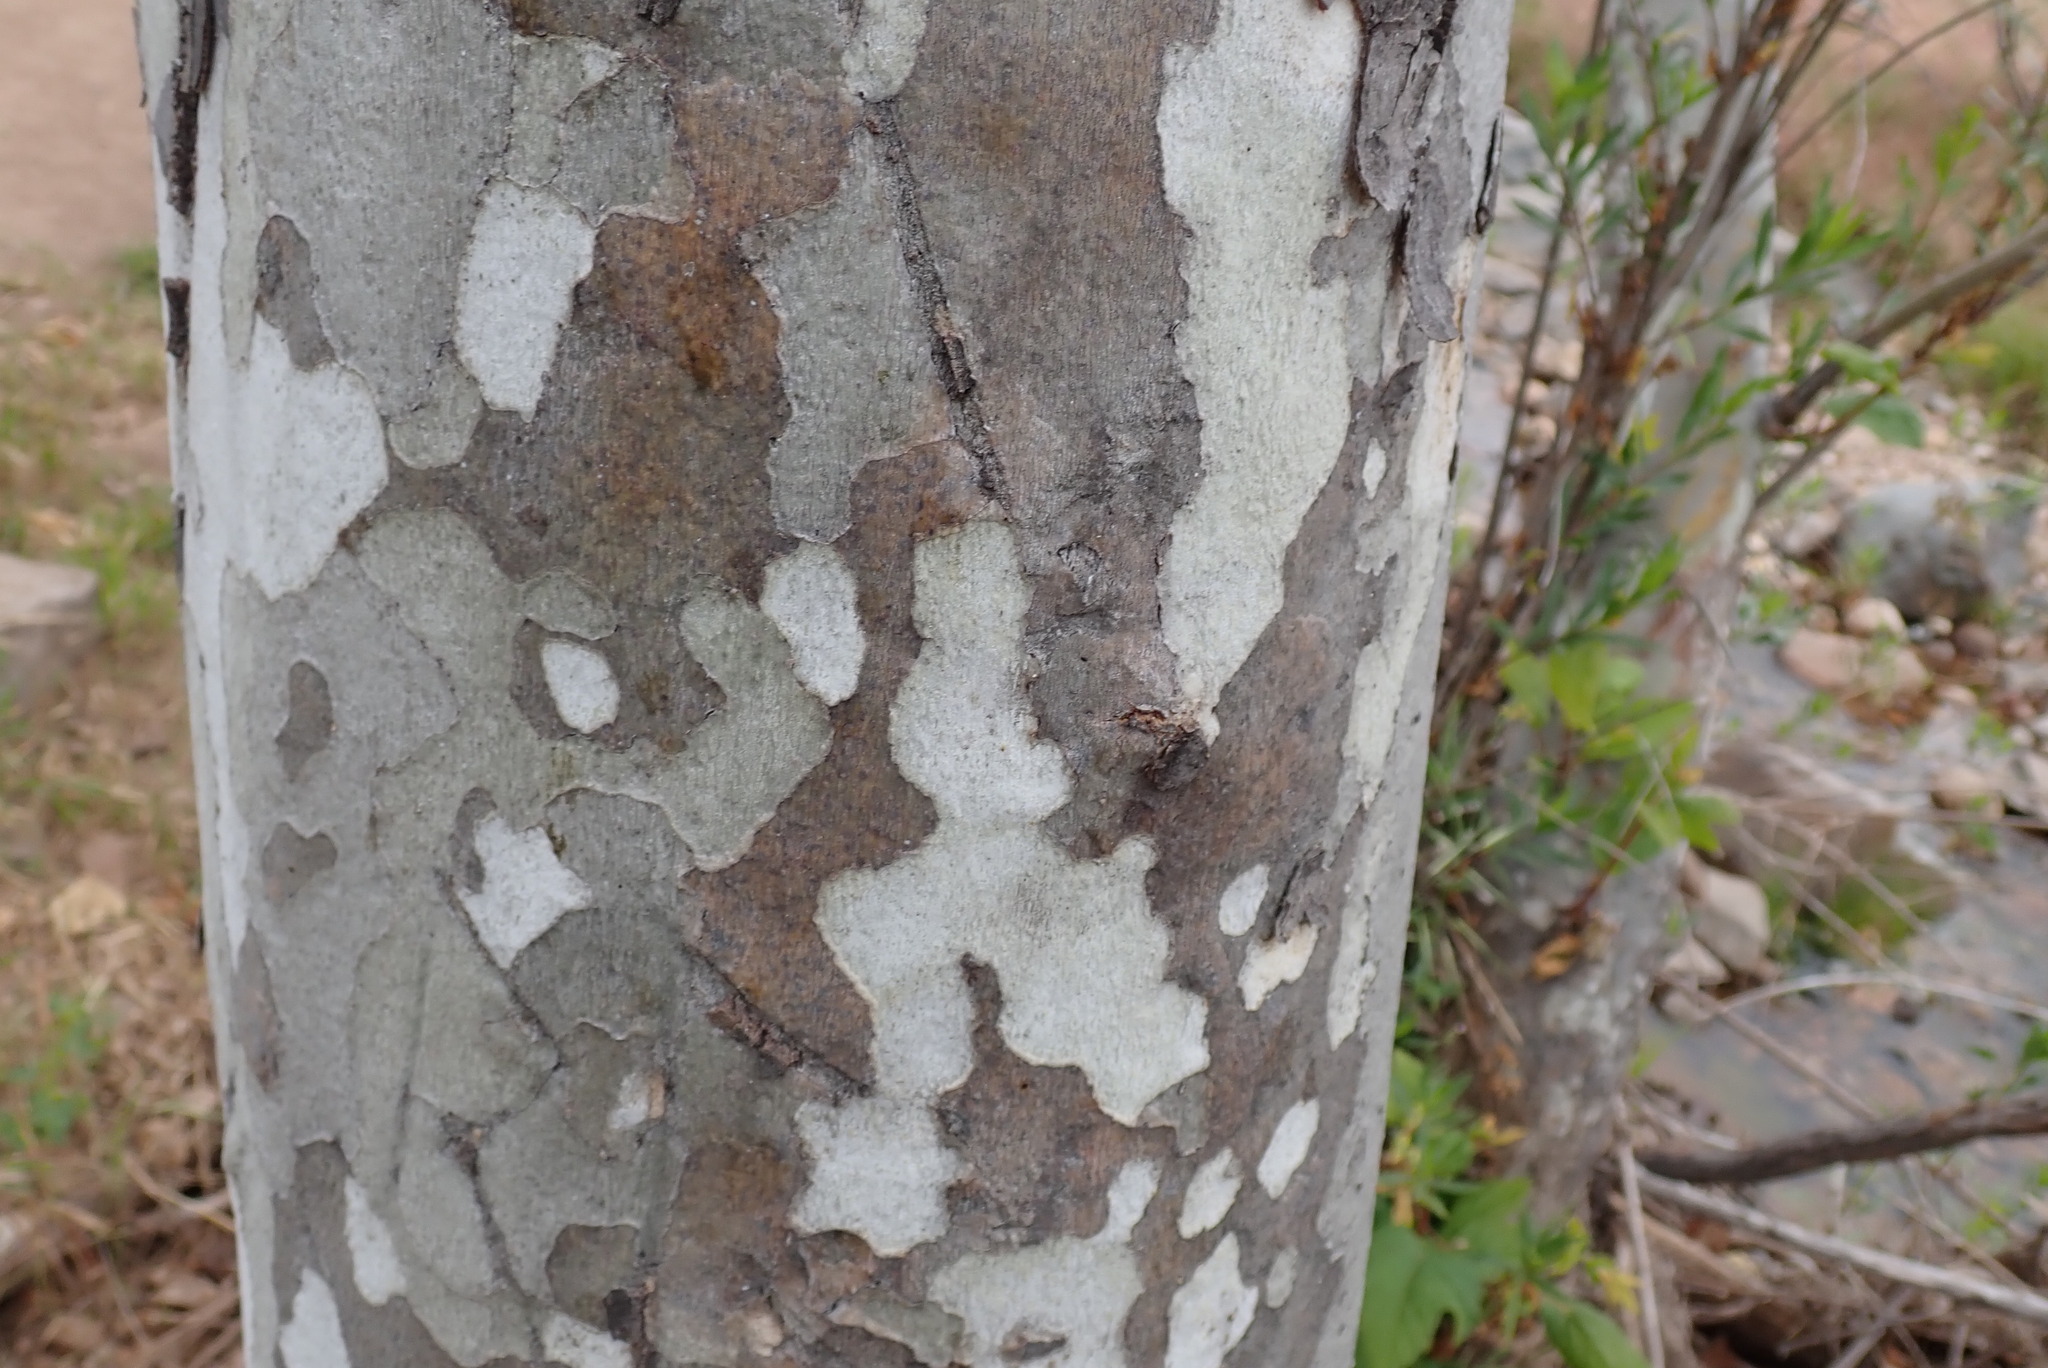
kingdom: Plantae
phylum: Tracheophyta
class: Magnoliopsida
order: Proteales
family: Platanaceae
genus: Platanus
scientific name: Platanus racemosa
